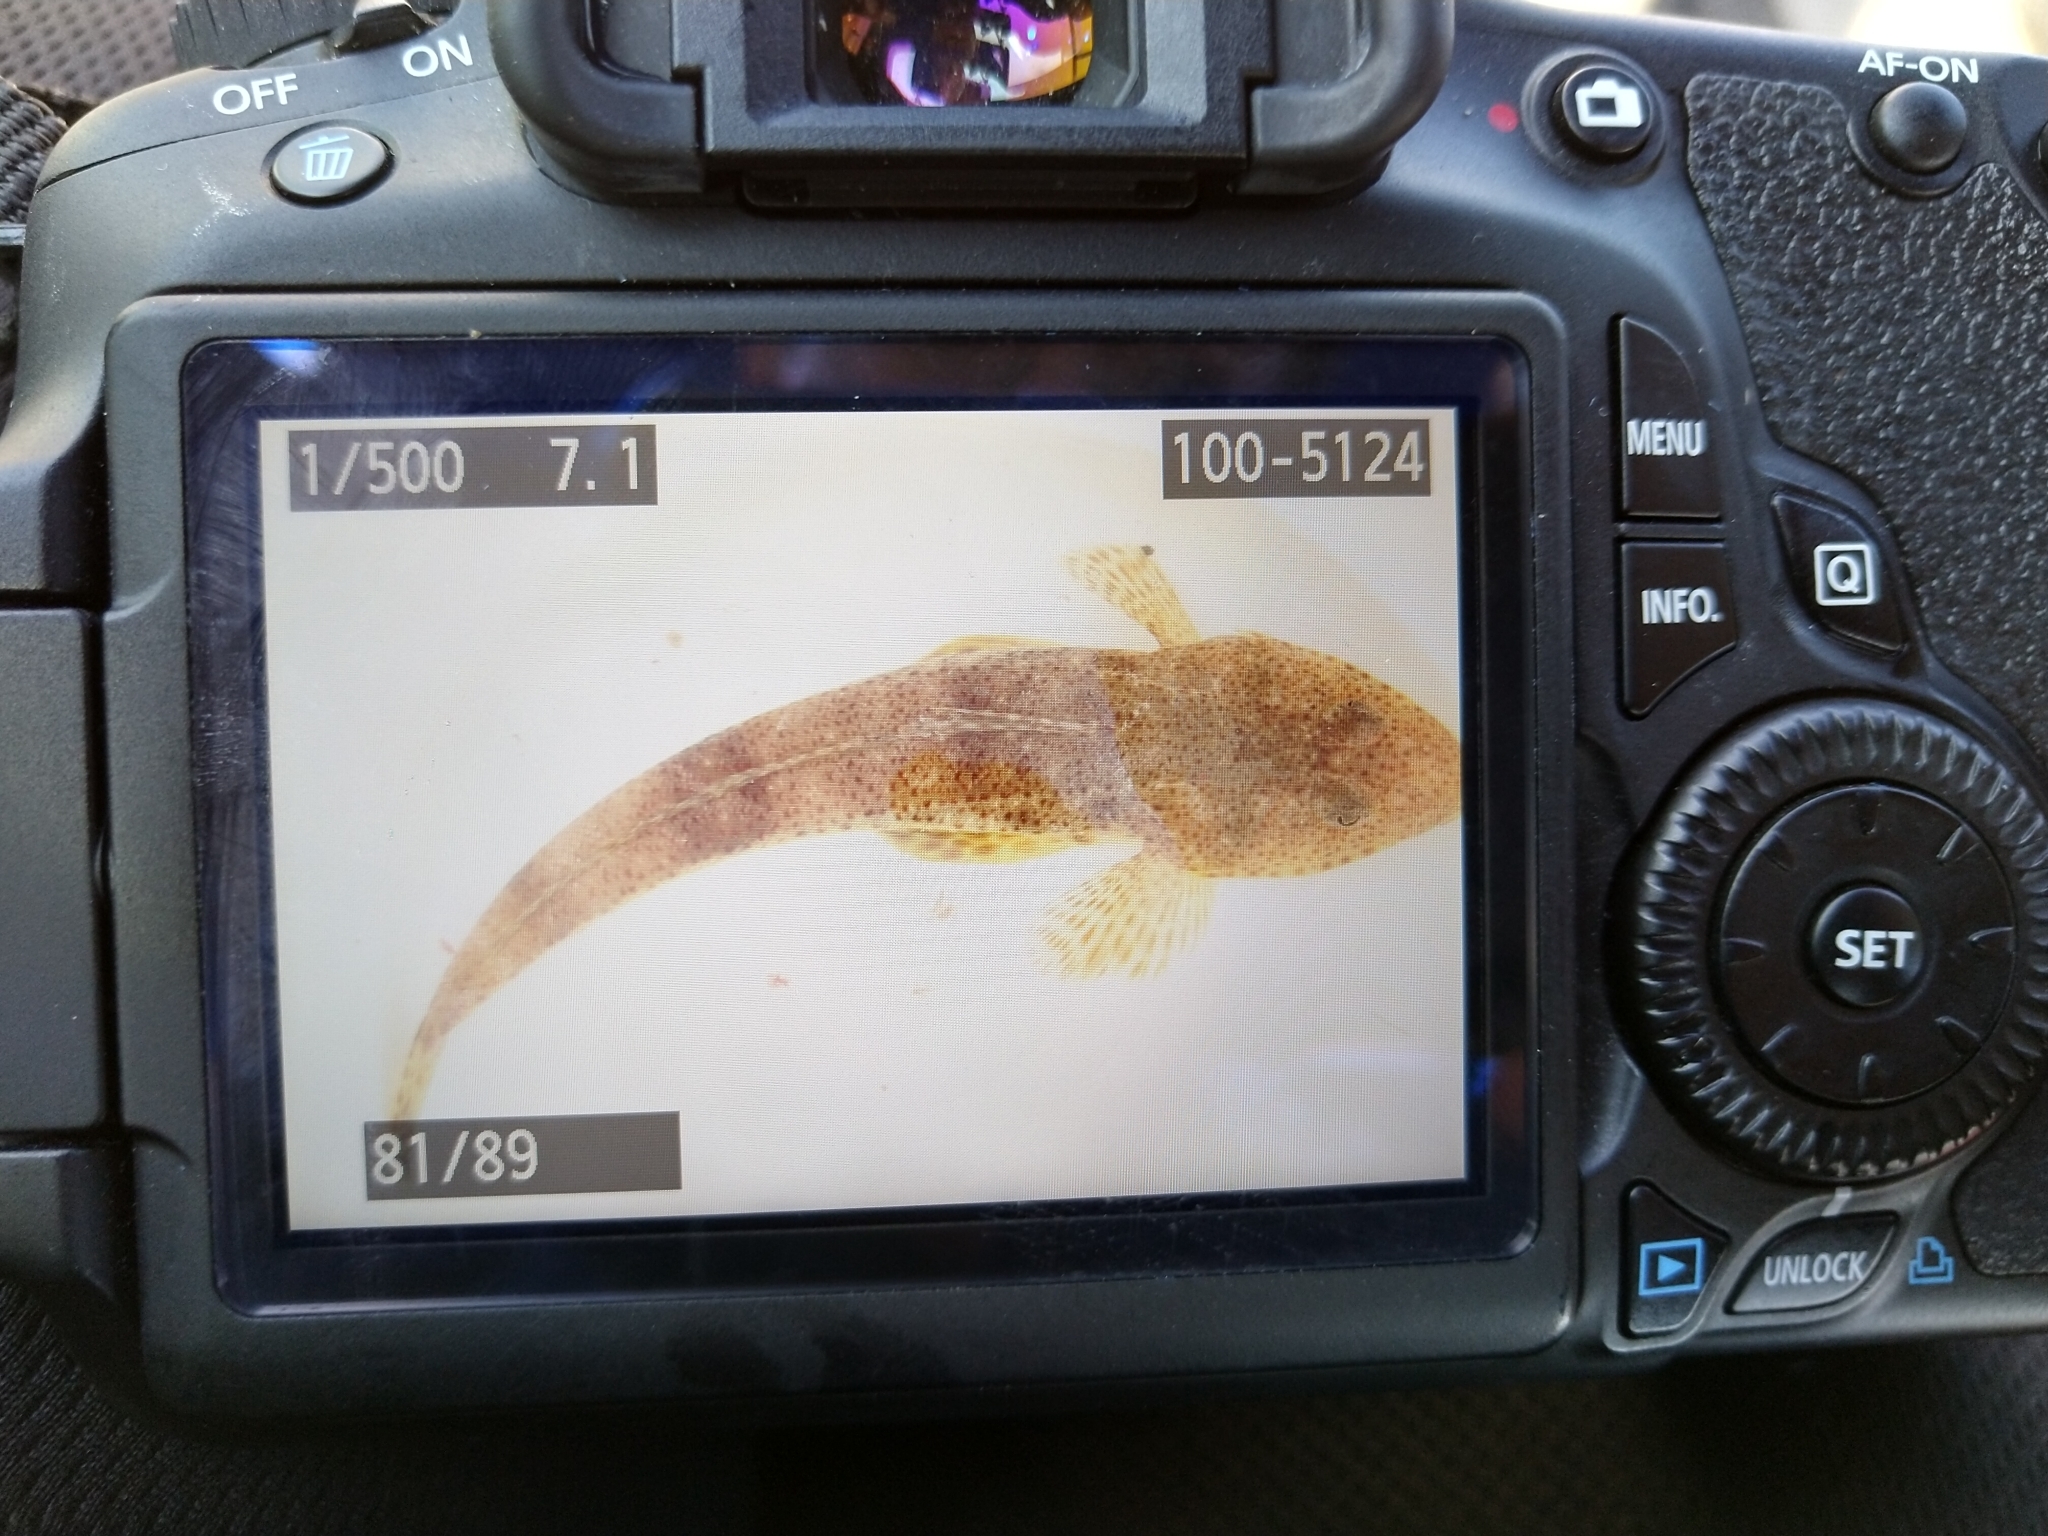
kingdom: Animalia
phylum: Chordata
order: Scorpaeniformes
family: Platycephalidae
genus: Platycephalus
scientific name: Platycephalus bassensis
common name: Sand flathead
